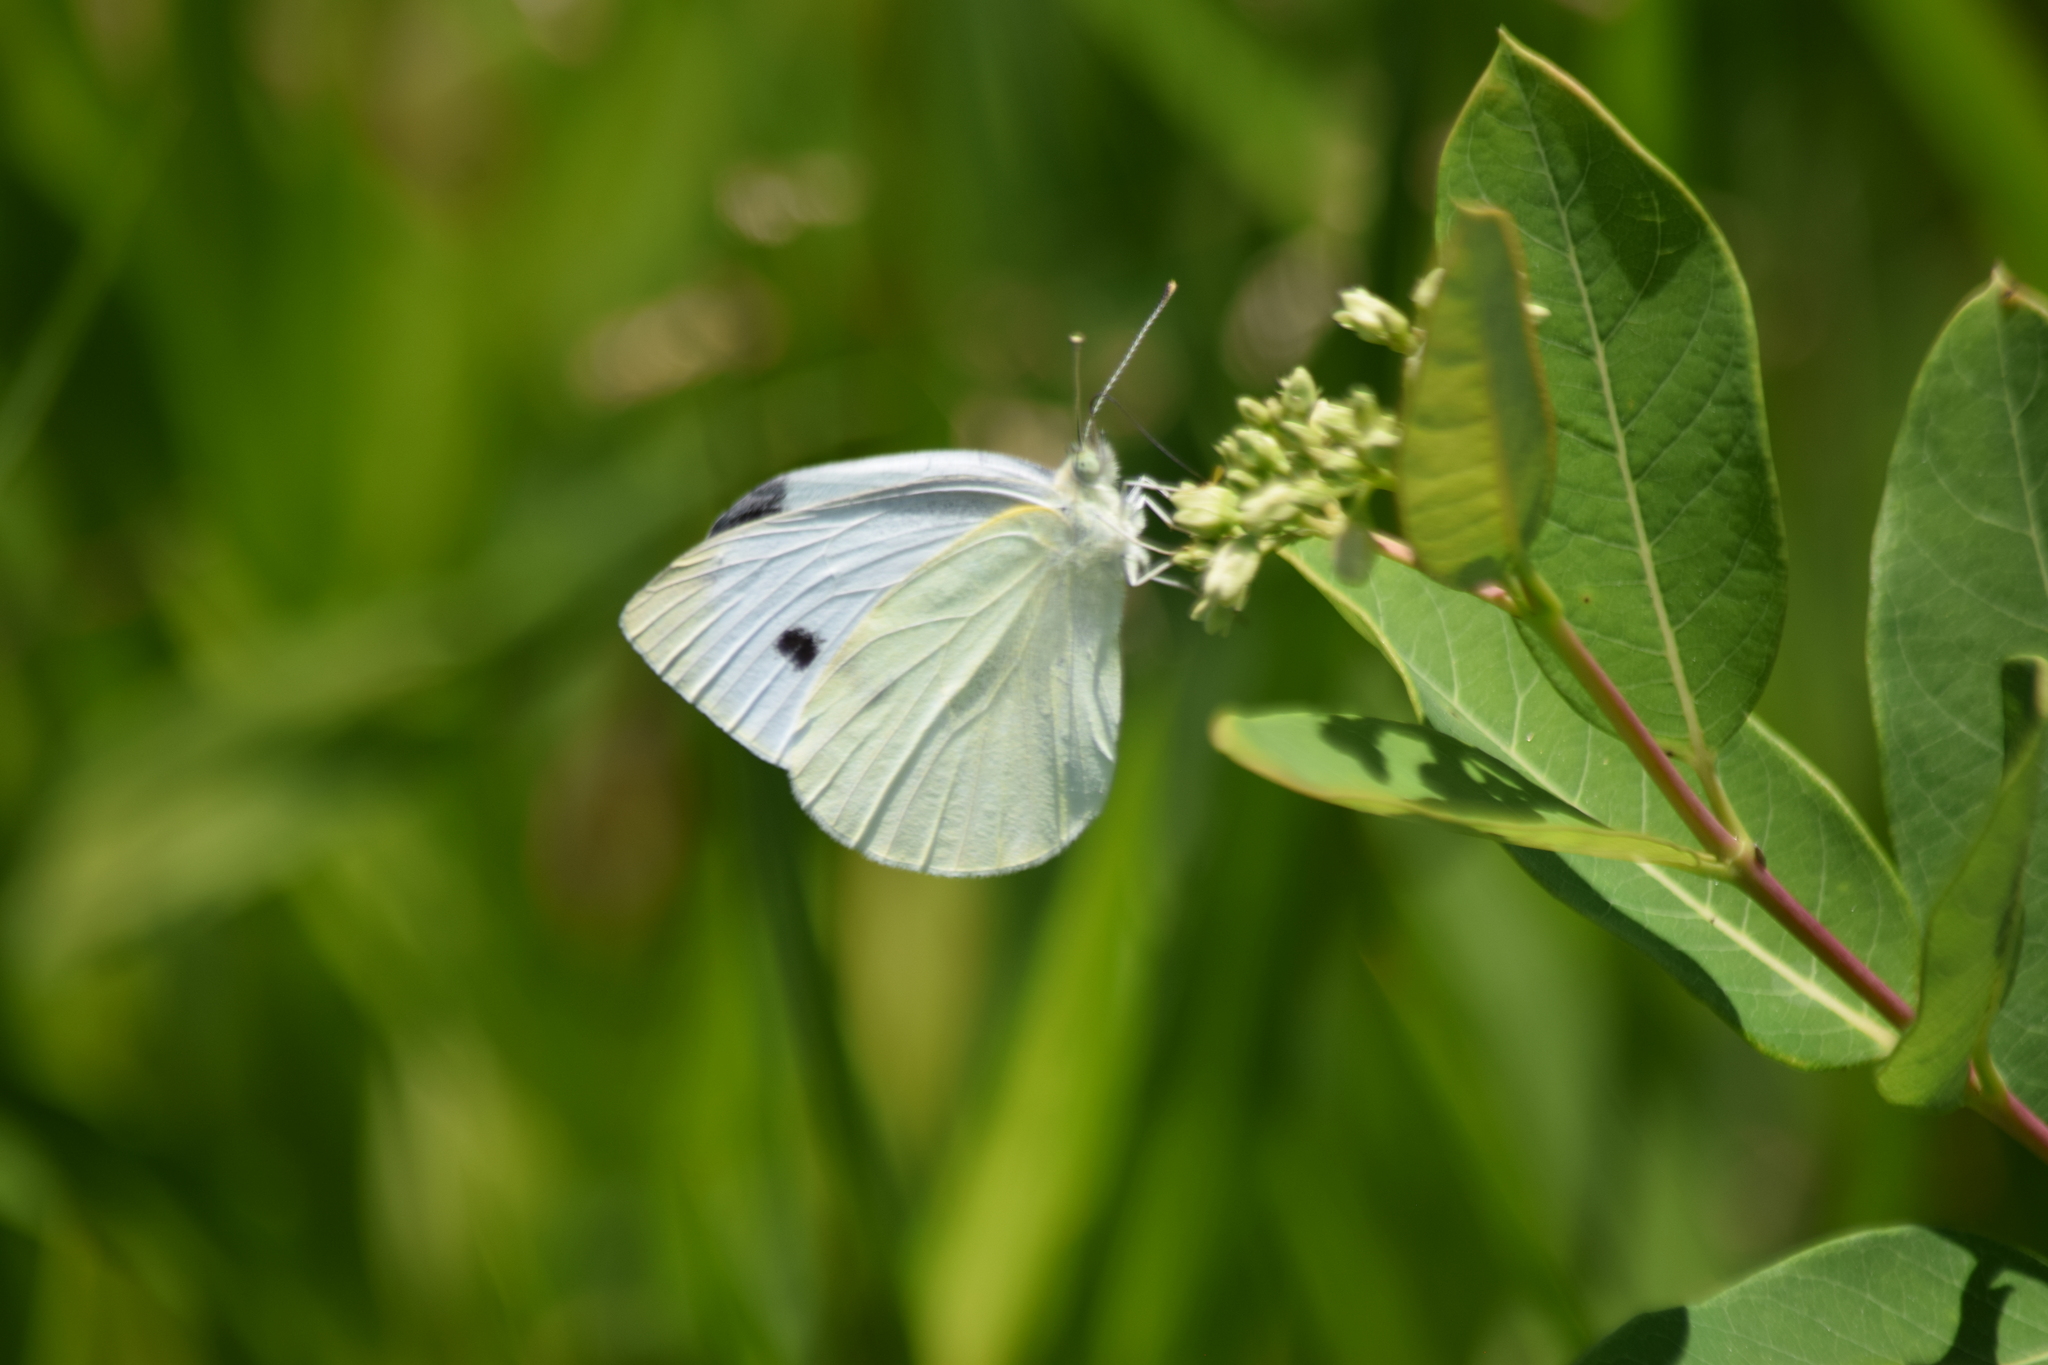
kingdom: Animalia
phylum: Arthropoda
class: Insecta
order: Lepidoptera
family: Pieridae
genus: Pieris
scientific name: Pieris rapae
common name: Small white
